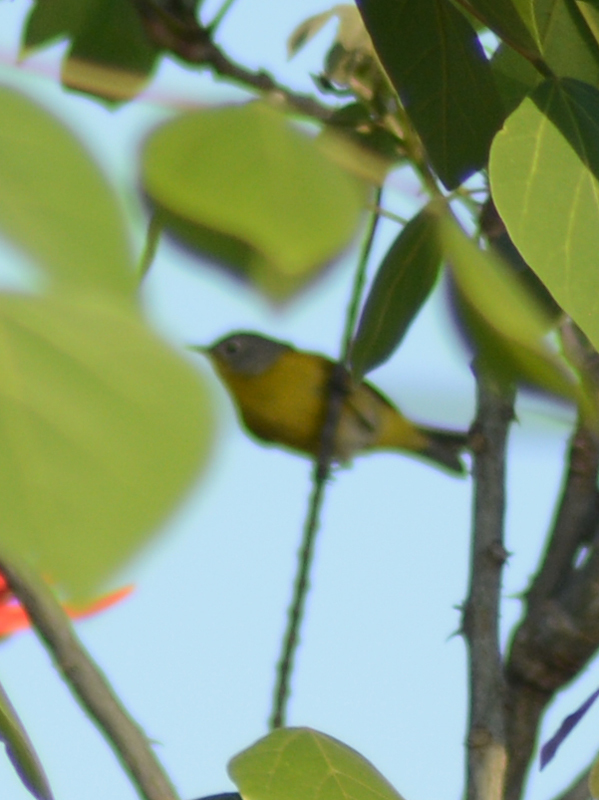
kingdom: Animalia
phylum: Chordata
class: Aves
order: Passeriformes
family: Parulidae
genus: Leiothlypis
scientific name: Leiothlypis ruficapilla
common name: Nashville warbler
